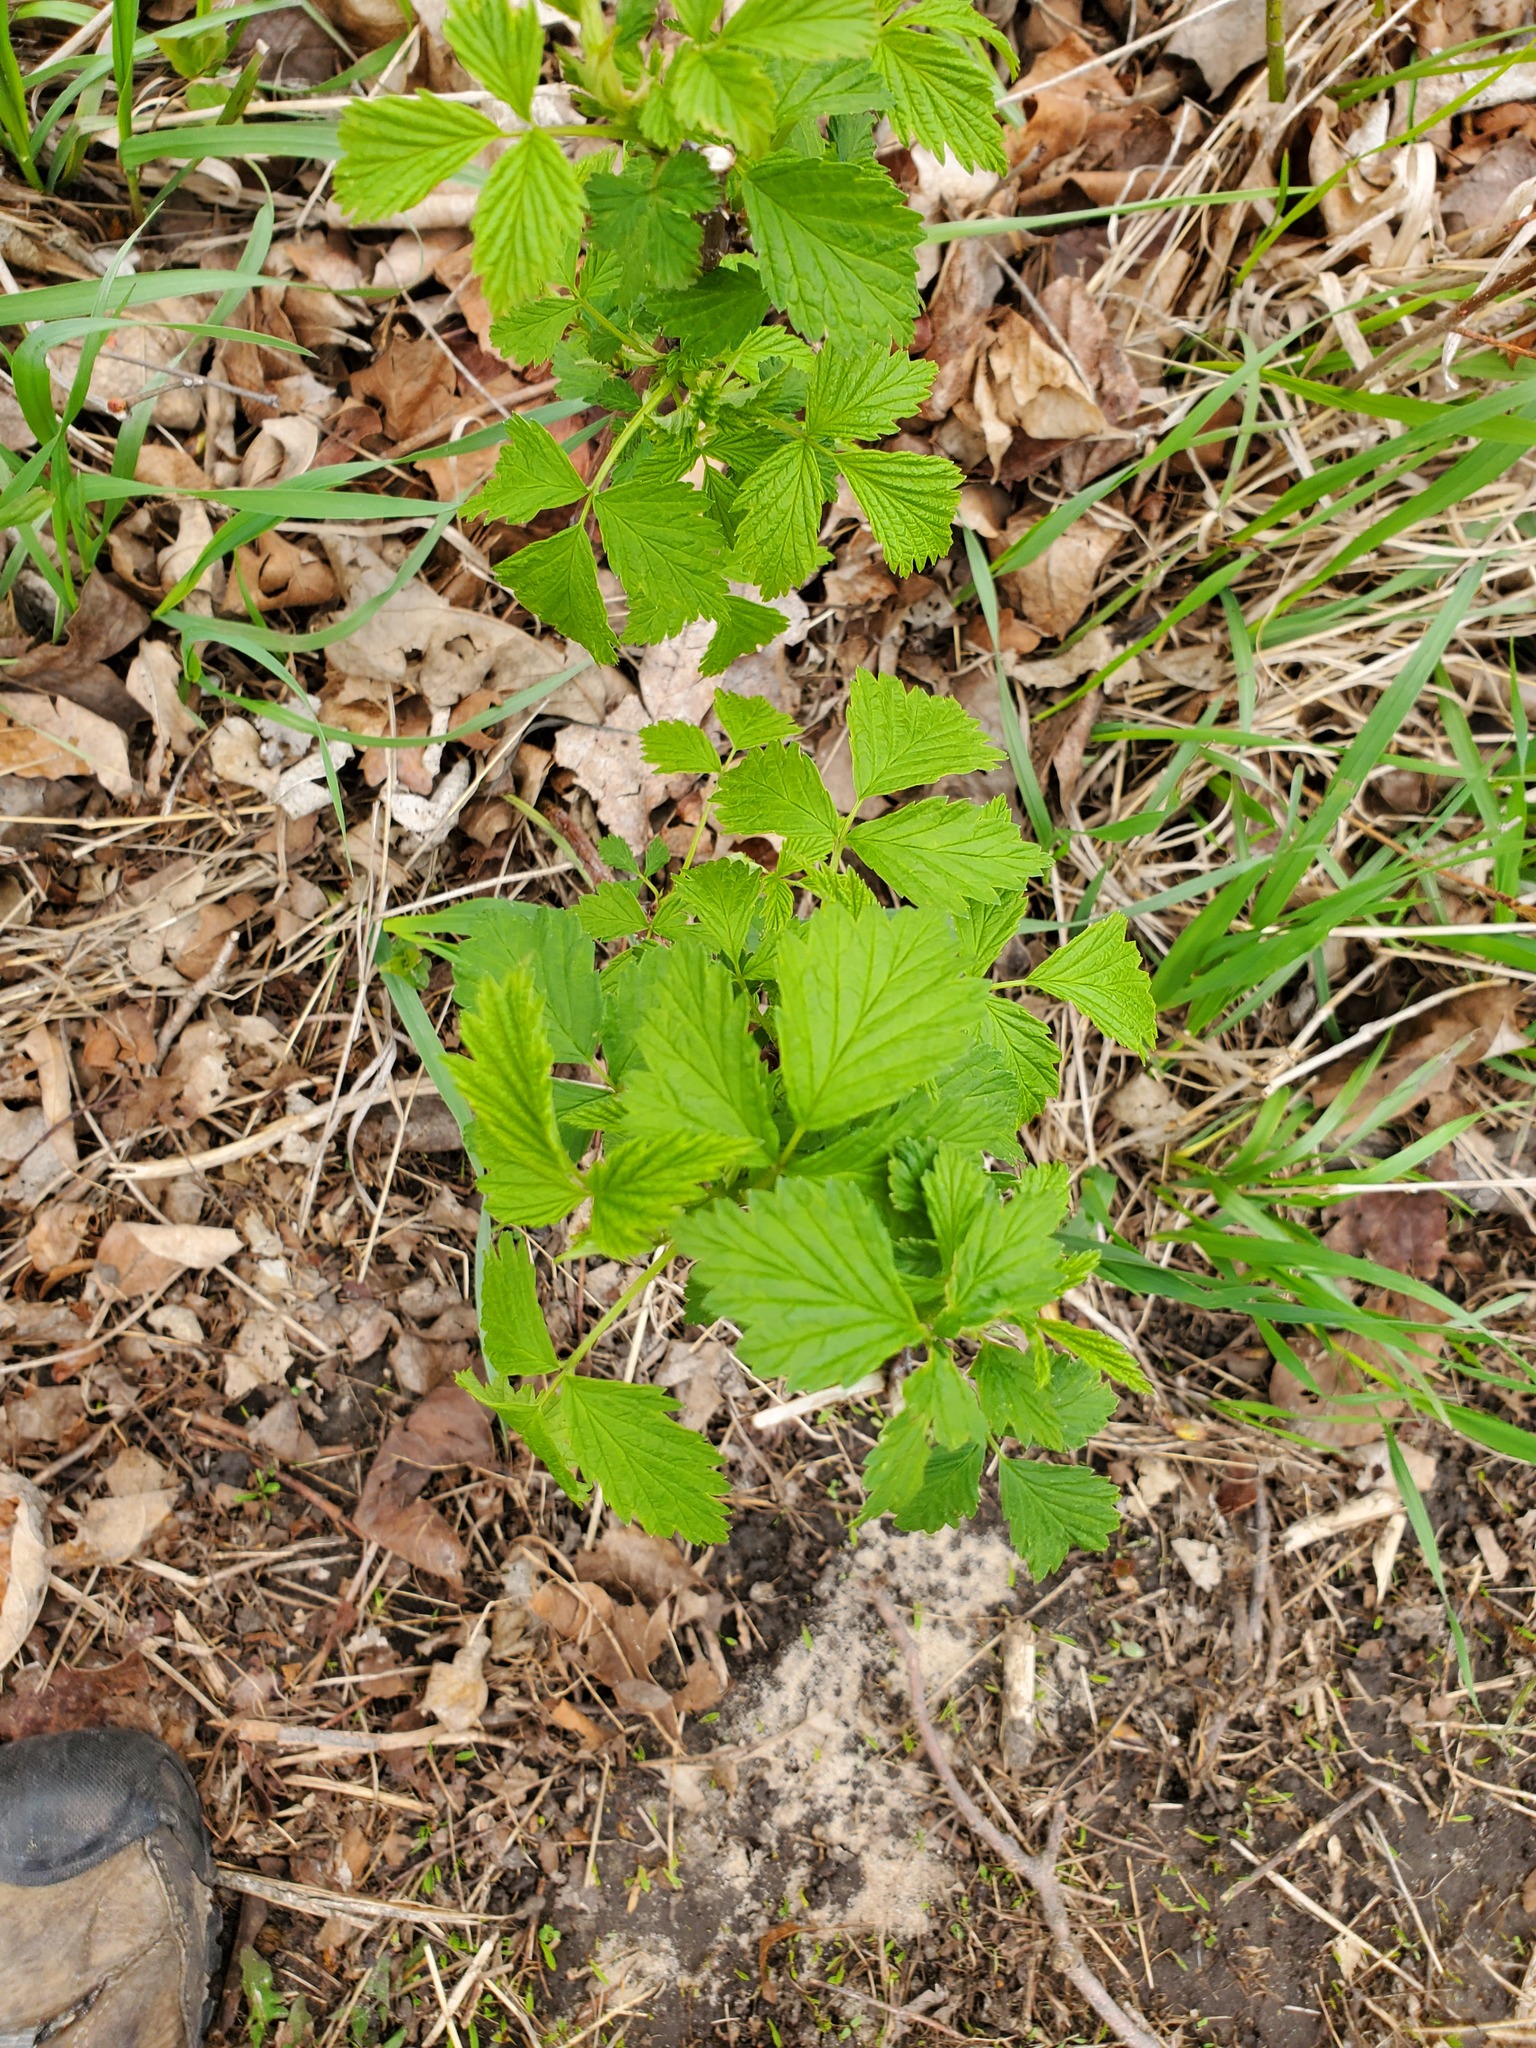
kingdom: Plantae
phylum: Tracheophyta
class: Magnoliopsida
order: Rosales
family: Rosaceae
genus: Rubus
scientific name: Rubus occidentalis
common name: Black raspberry
